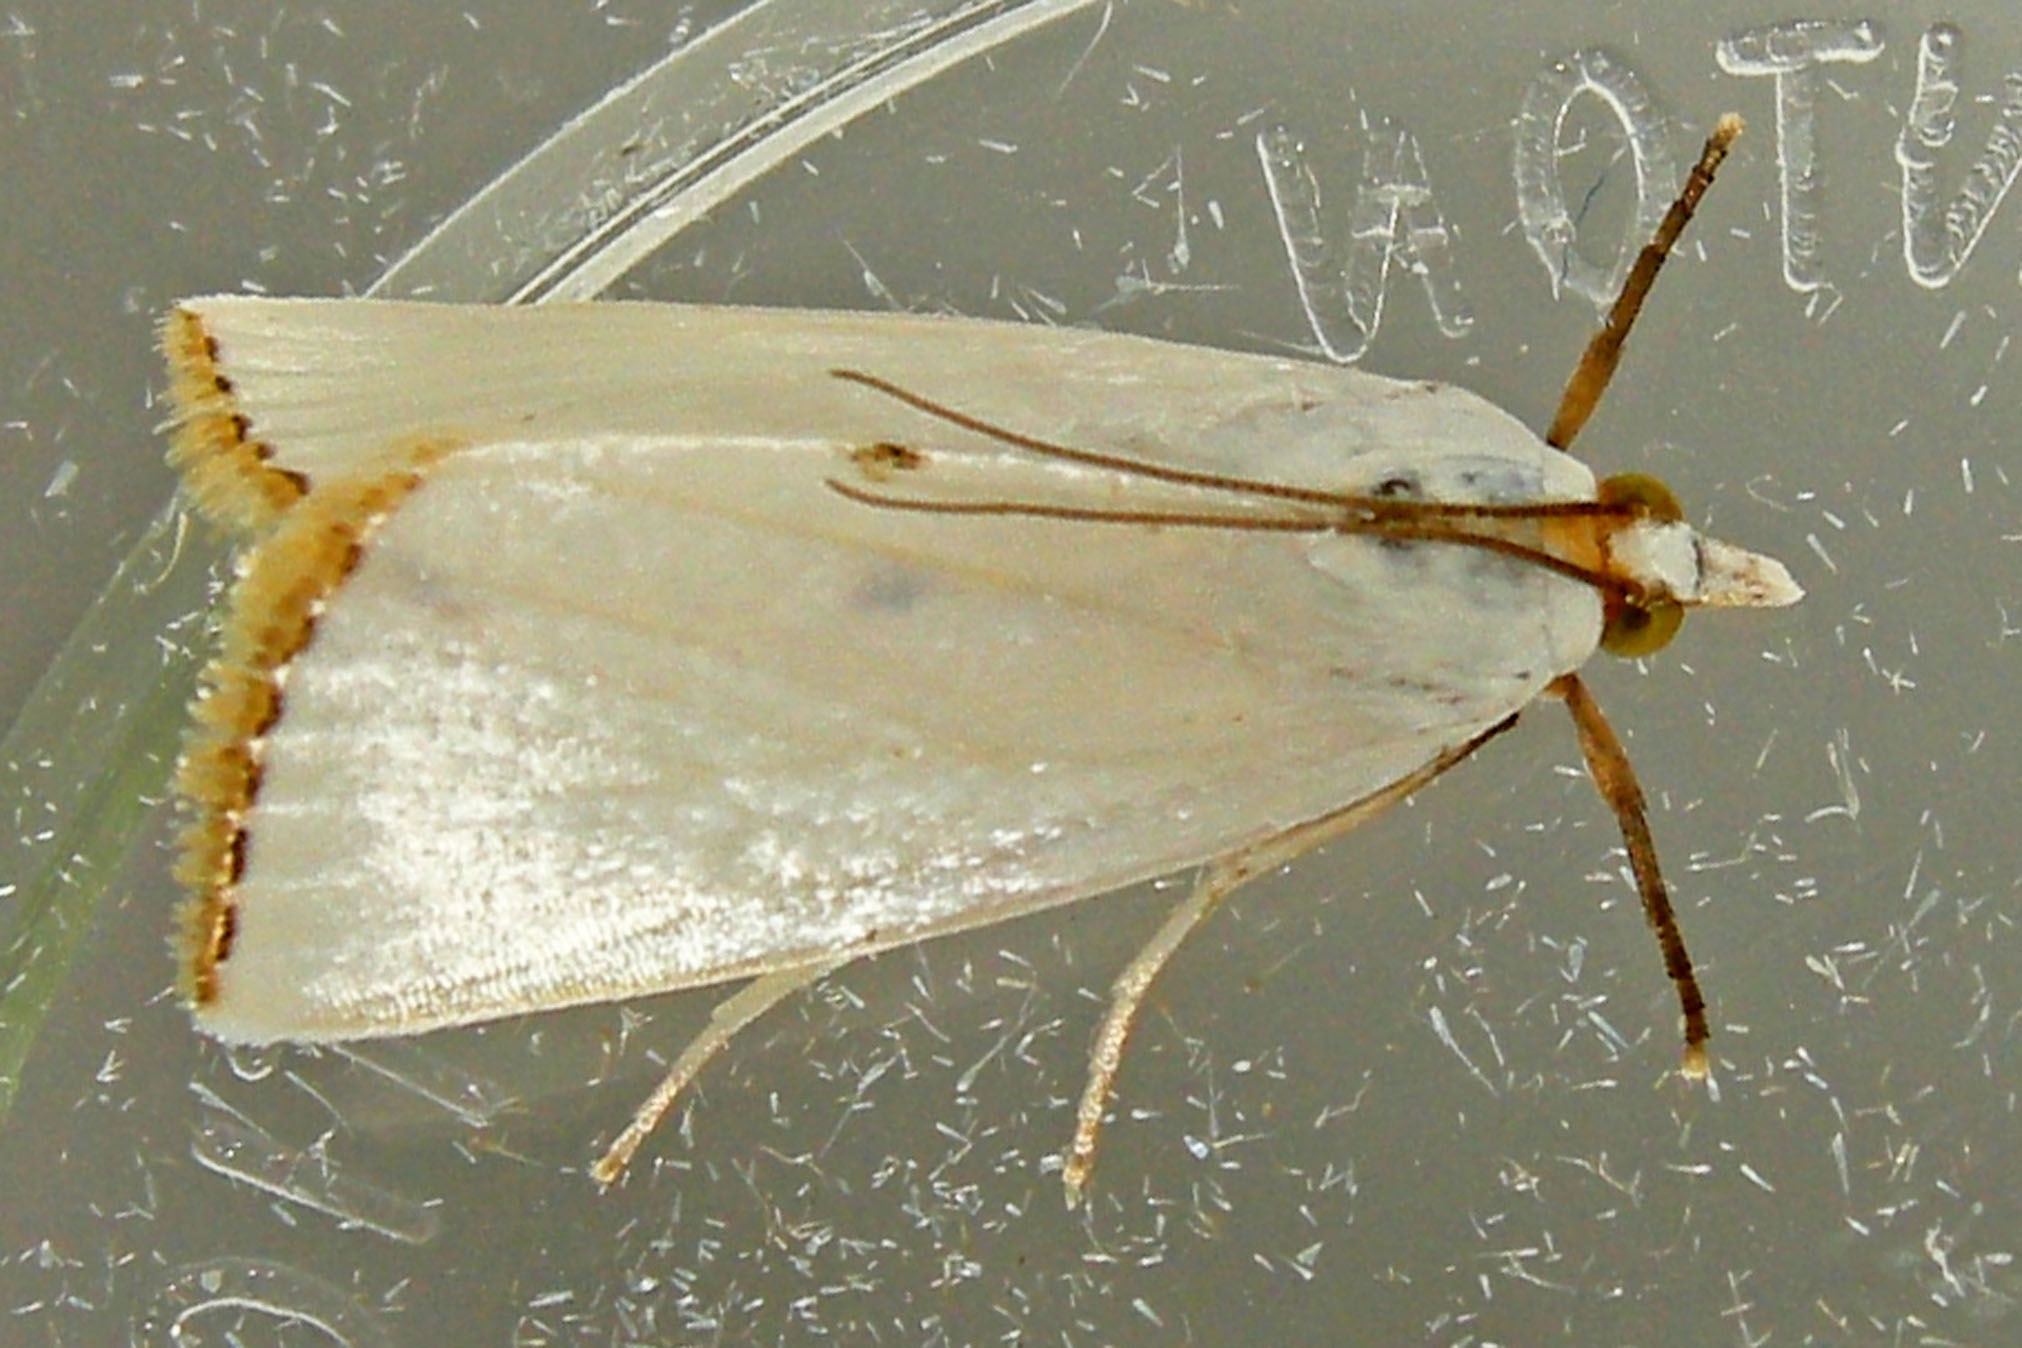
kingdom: Animalia
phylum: Arthropoda
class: Insecta
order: Lepidoptera
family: Crambidae
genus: Argyria
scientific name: Argyria nivalis
